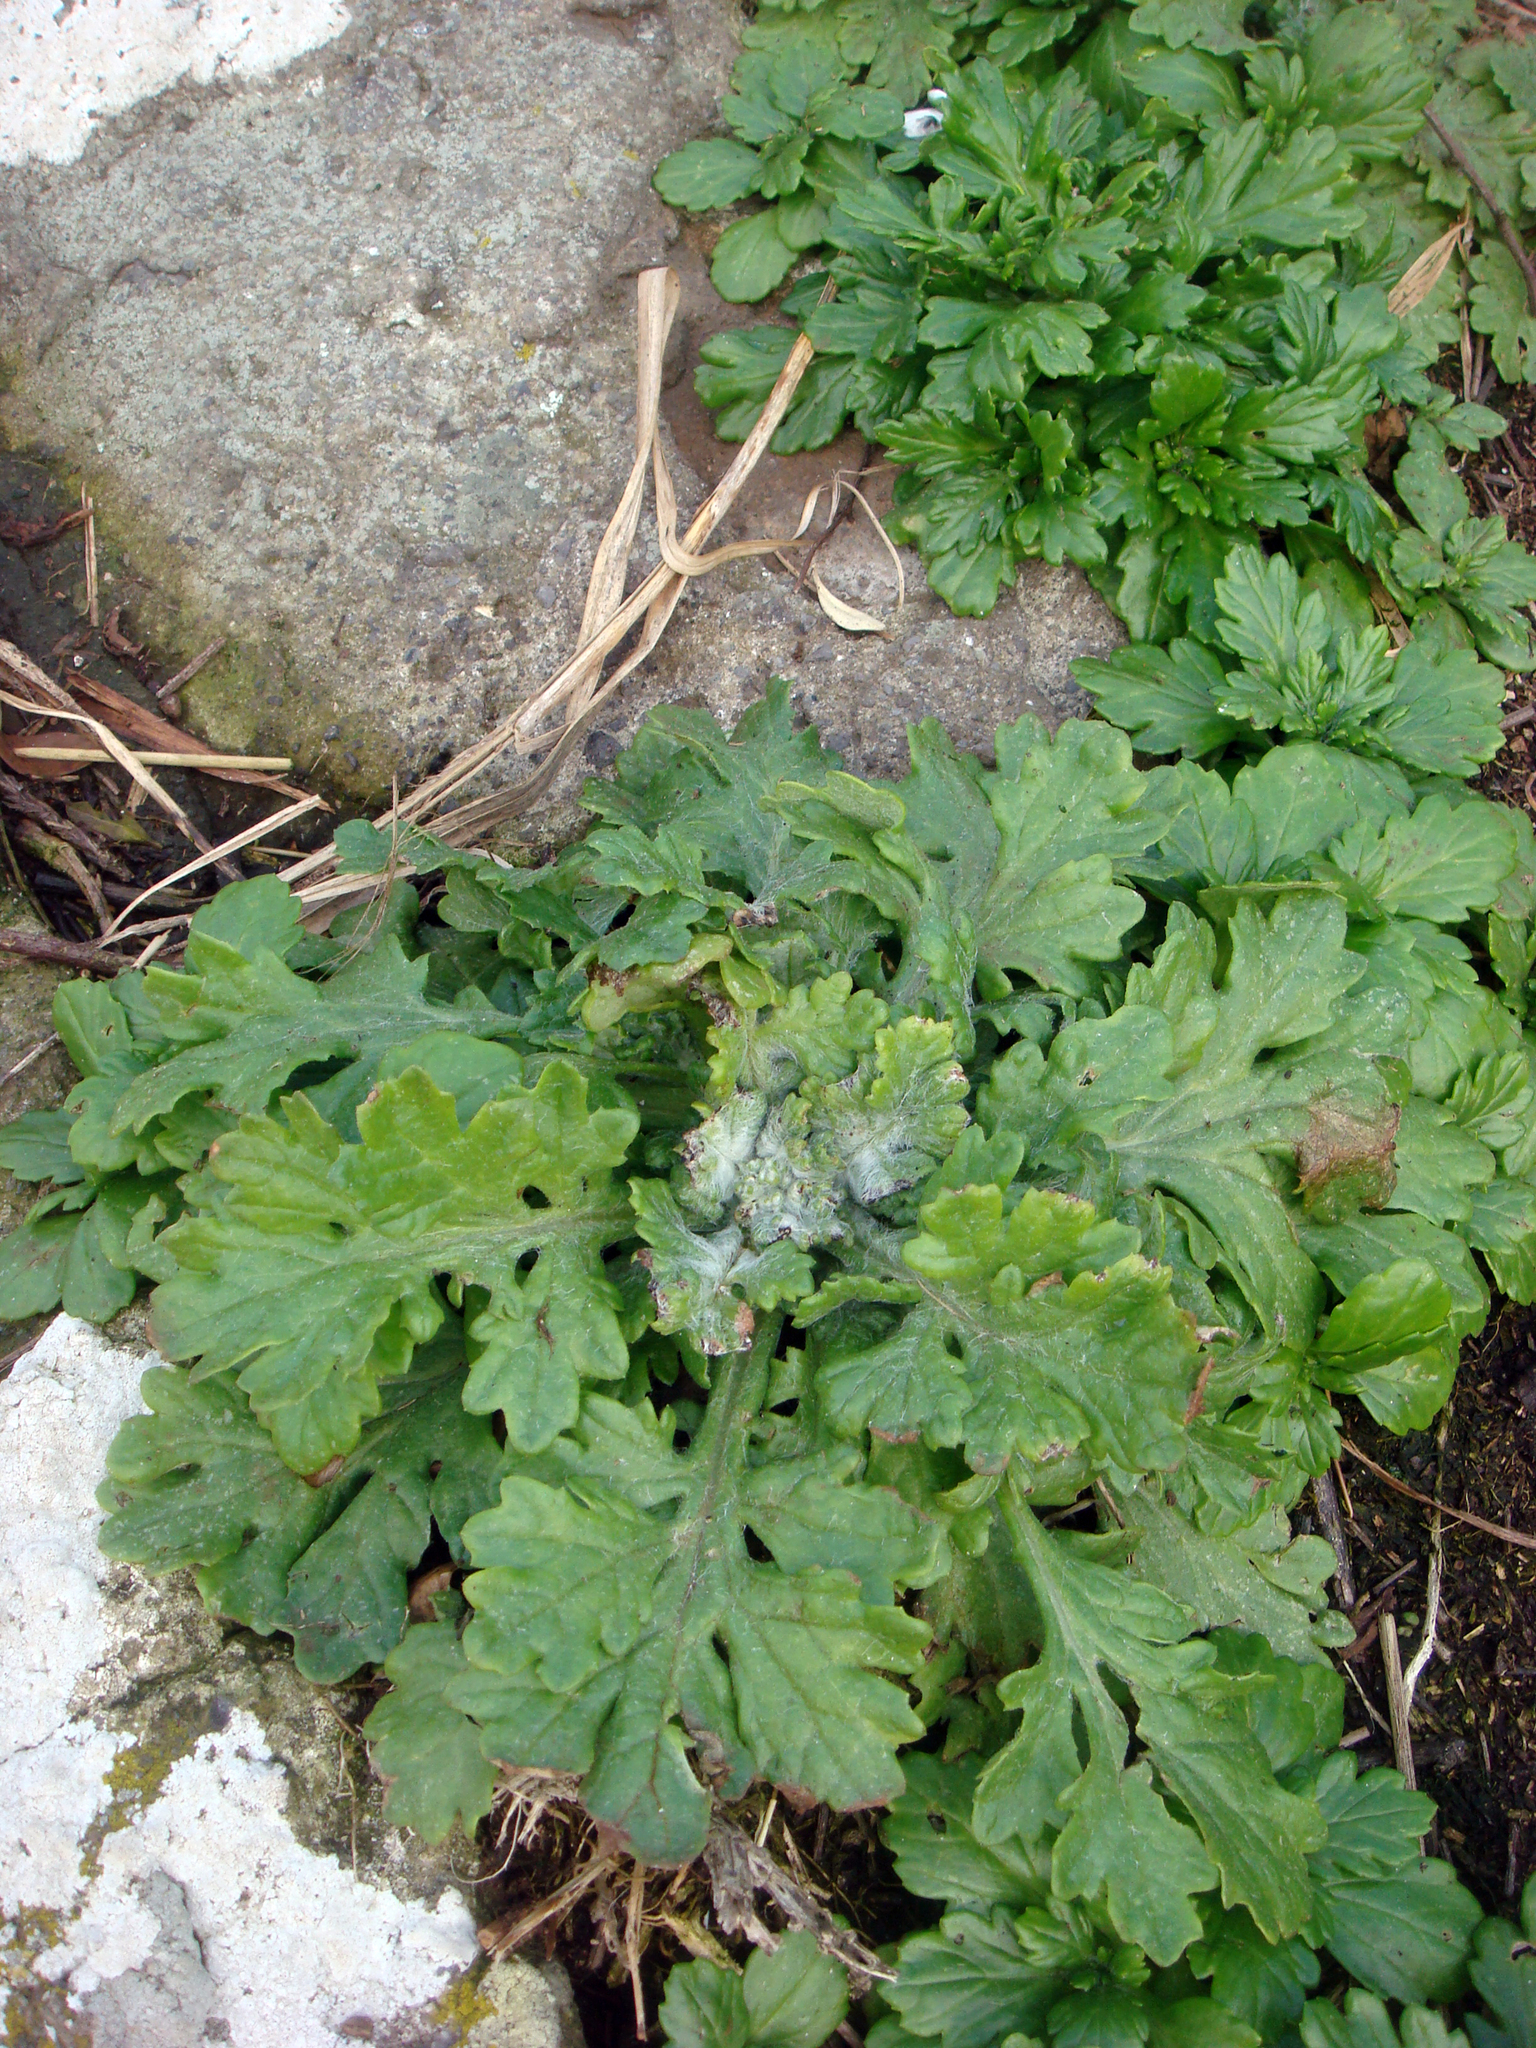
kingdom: Plantae
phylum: Tracheophyta
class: Magnoliopsida
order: Asterales
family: Asteraceae
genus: Senecio
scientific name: Senecio radiolatus
